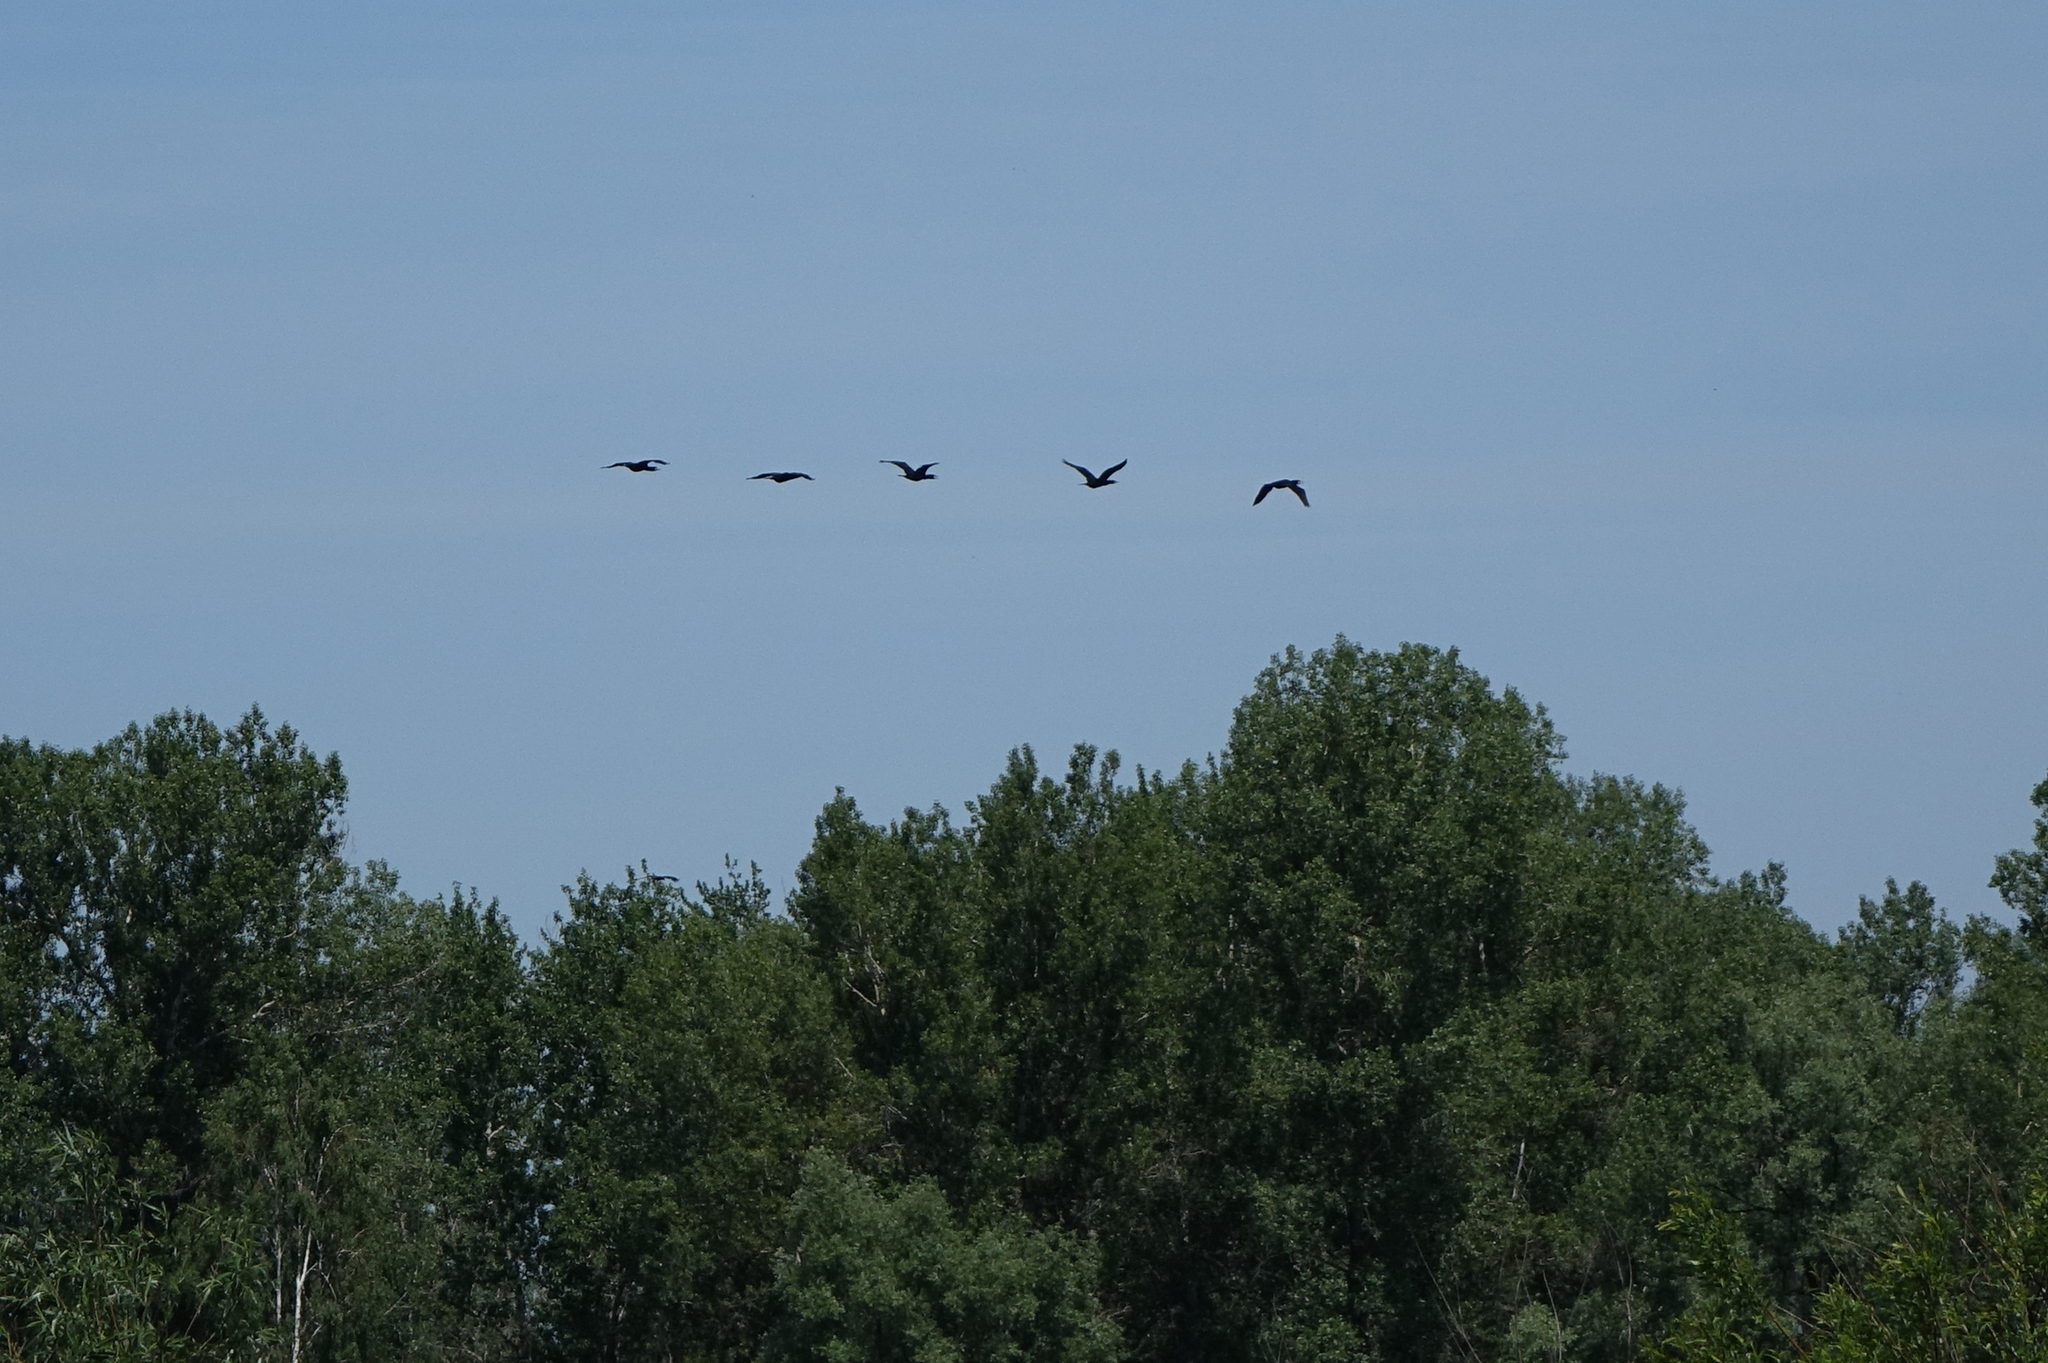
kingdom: Animalia
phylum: Chordata
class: Aves
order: Suliformes
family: Phalacrocoracidae
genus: Phalacrocorax
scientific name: Phalacrocorax carbo
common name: Great cormorant
